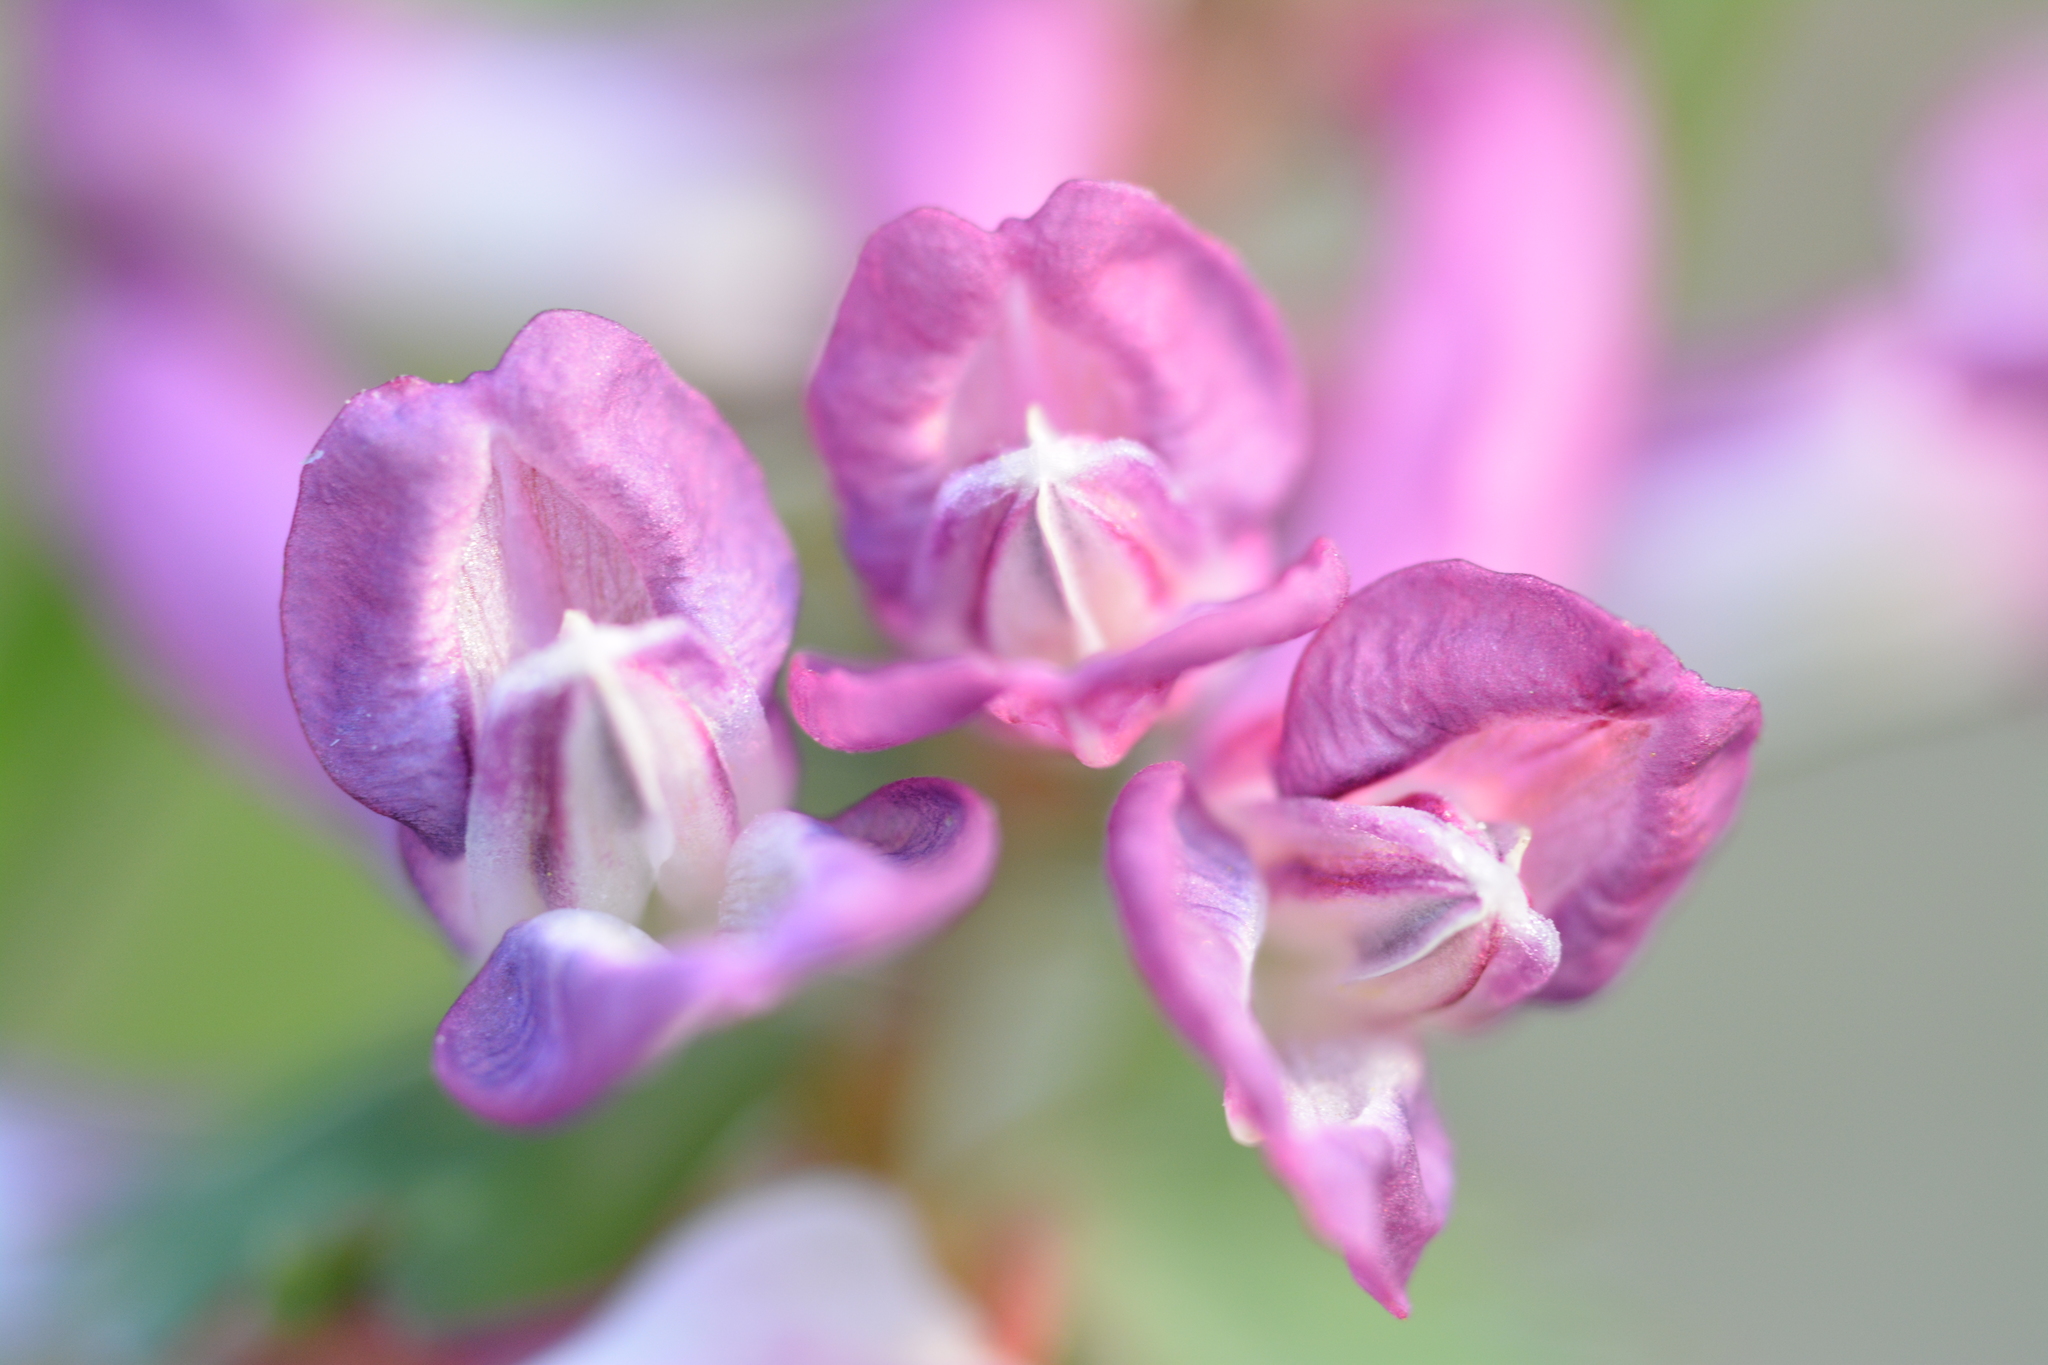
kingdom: Plantae
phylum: Tracheophyta
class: Magnoliopsida
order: Ranunculales
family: Papaveraceae
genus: Corydalis
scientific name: Corydalis solida
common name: Bird-in-a-bush
